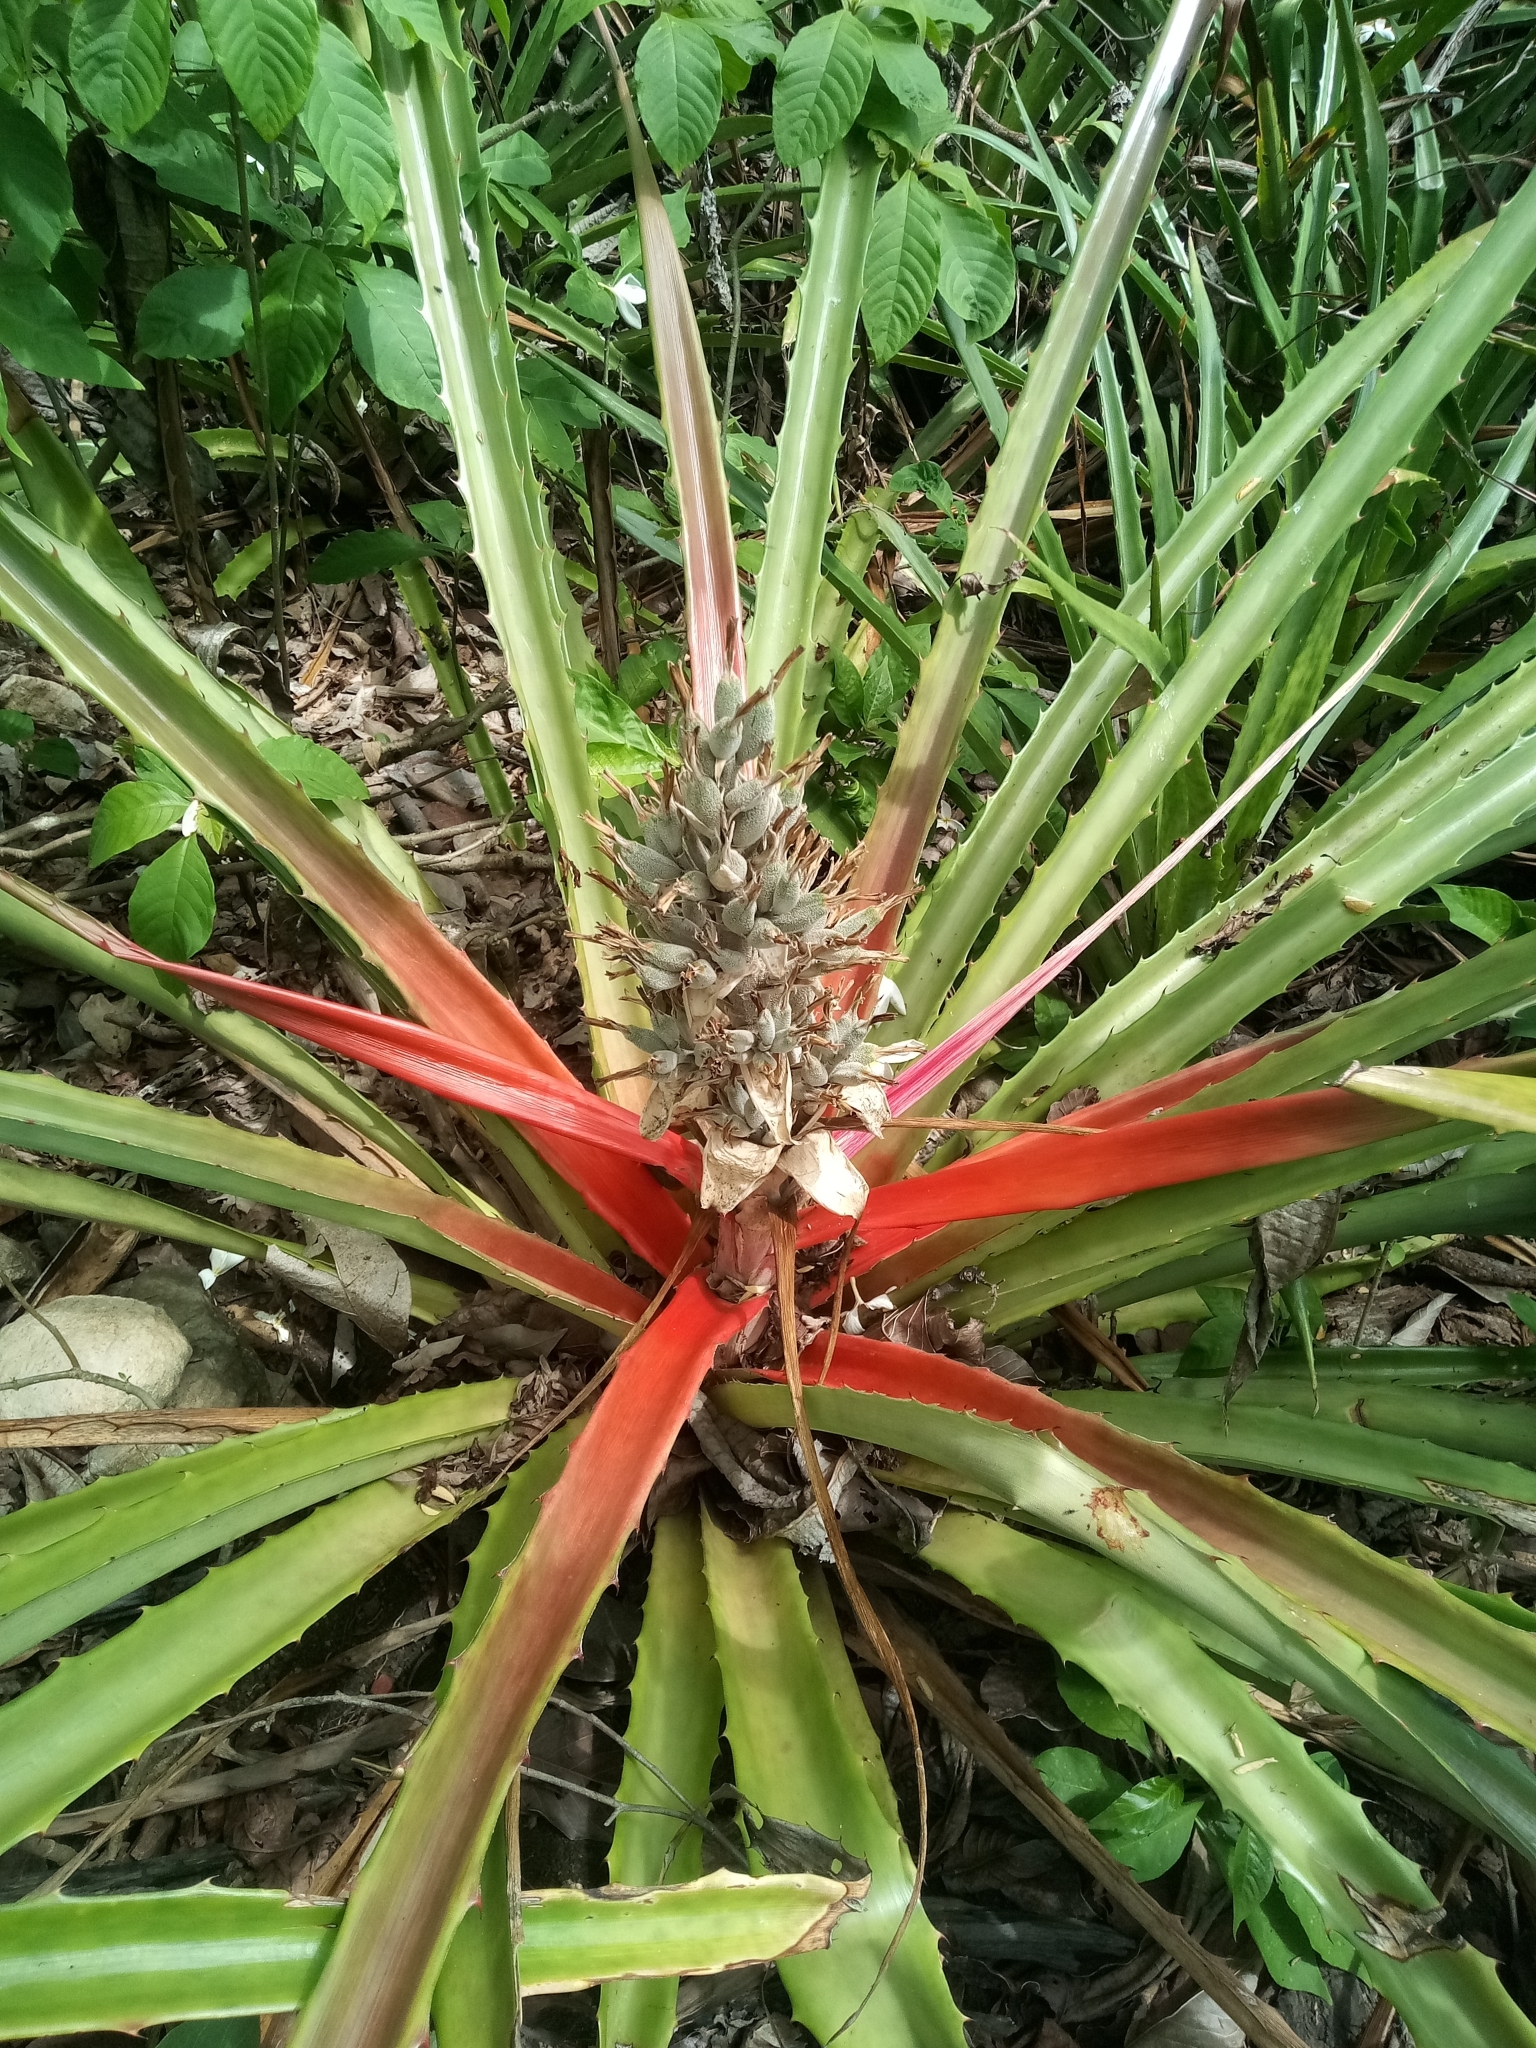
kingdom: Plantae
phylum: Tracheophyta
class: Liliopsida
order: Poales
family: Bromeliaceae
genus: Bromelia
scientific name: Bromelia pinguin
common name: Pinguin
